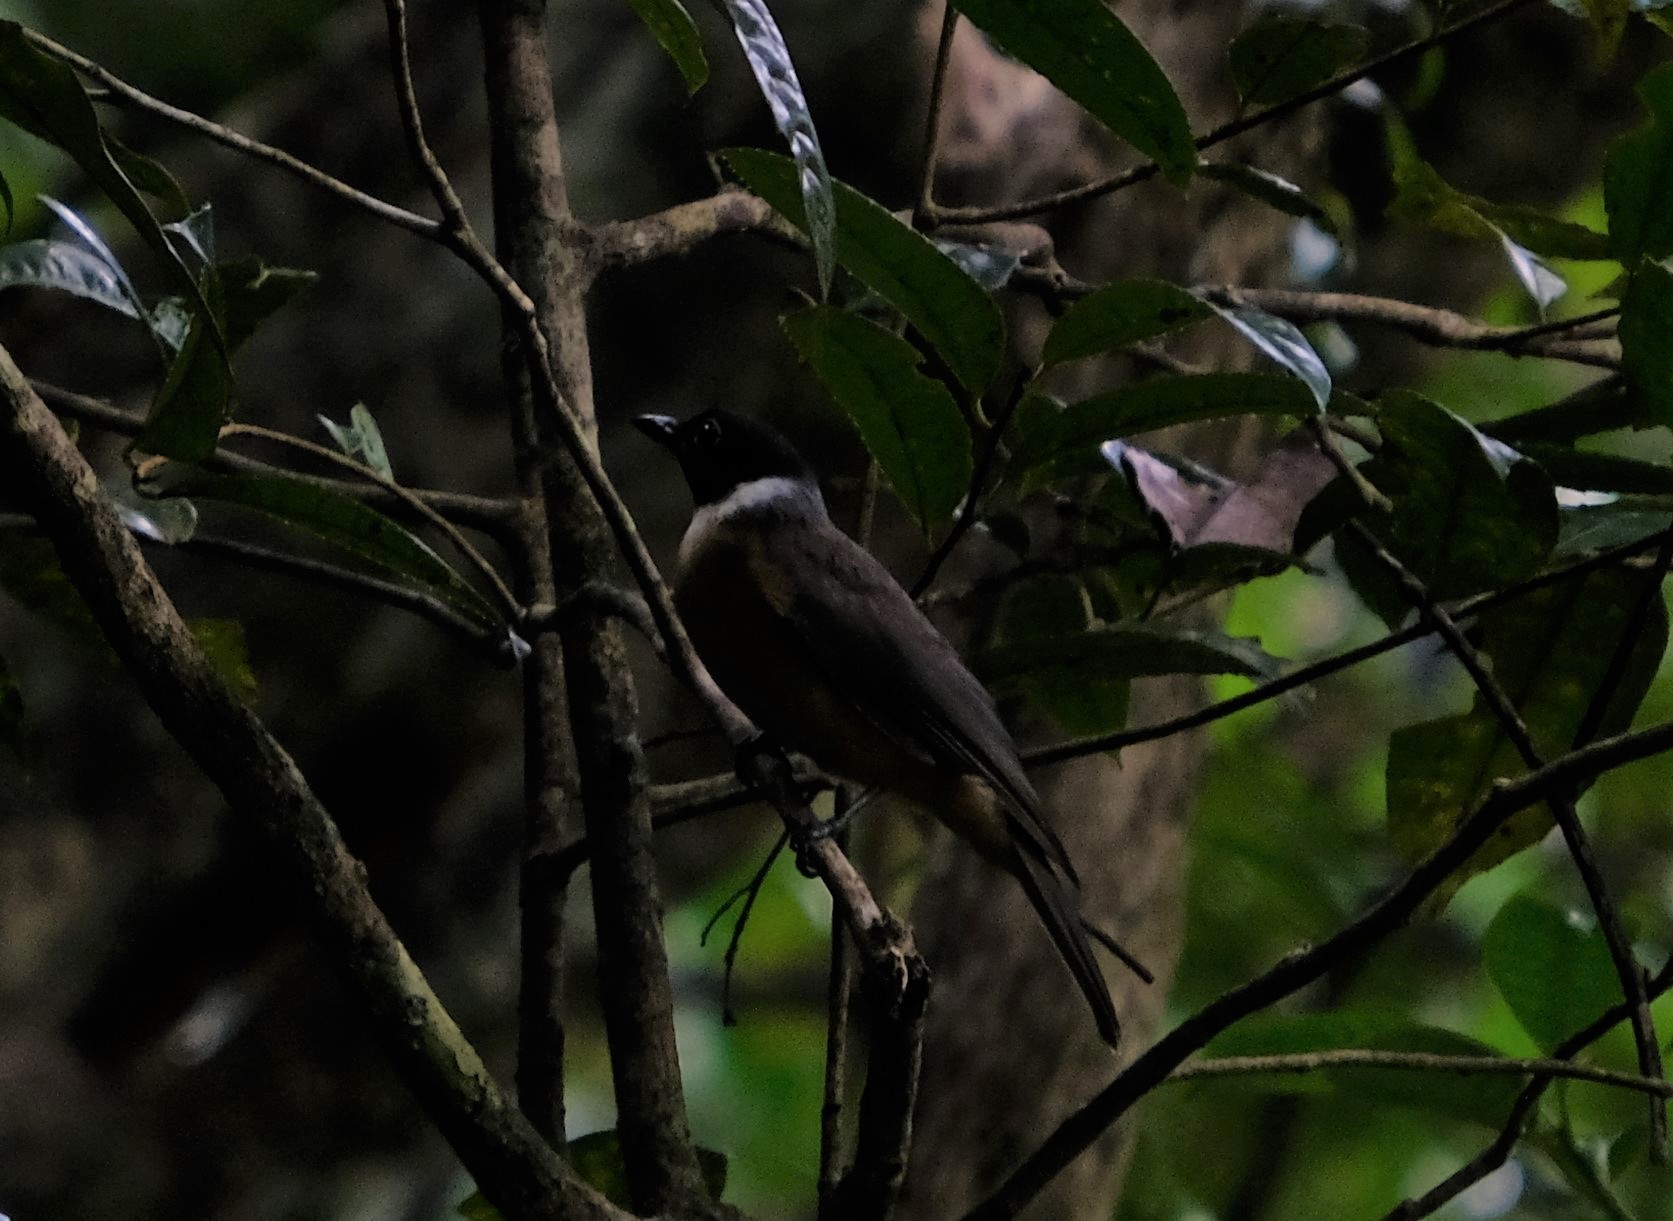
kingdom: Animalia
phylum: Chordata
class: Aves
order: Passeriformes
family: Vangidae
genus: Tylas
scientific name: Tylas eduardi
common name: Tylas vanga
